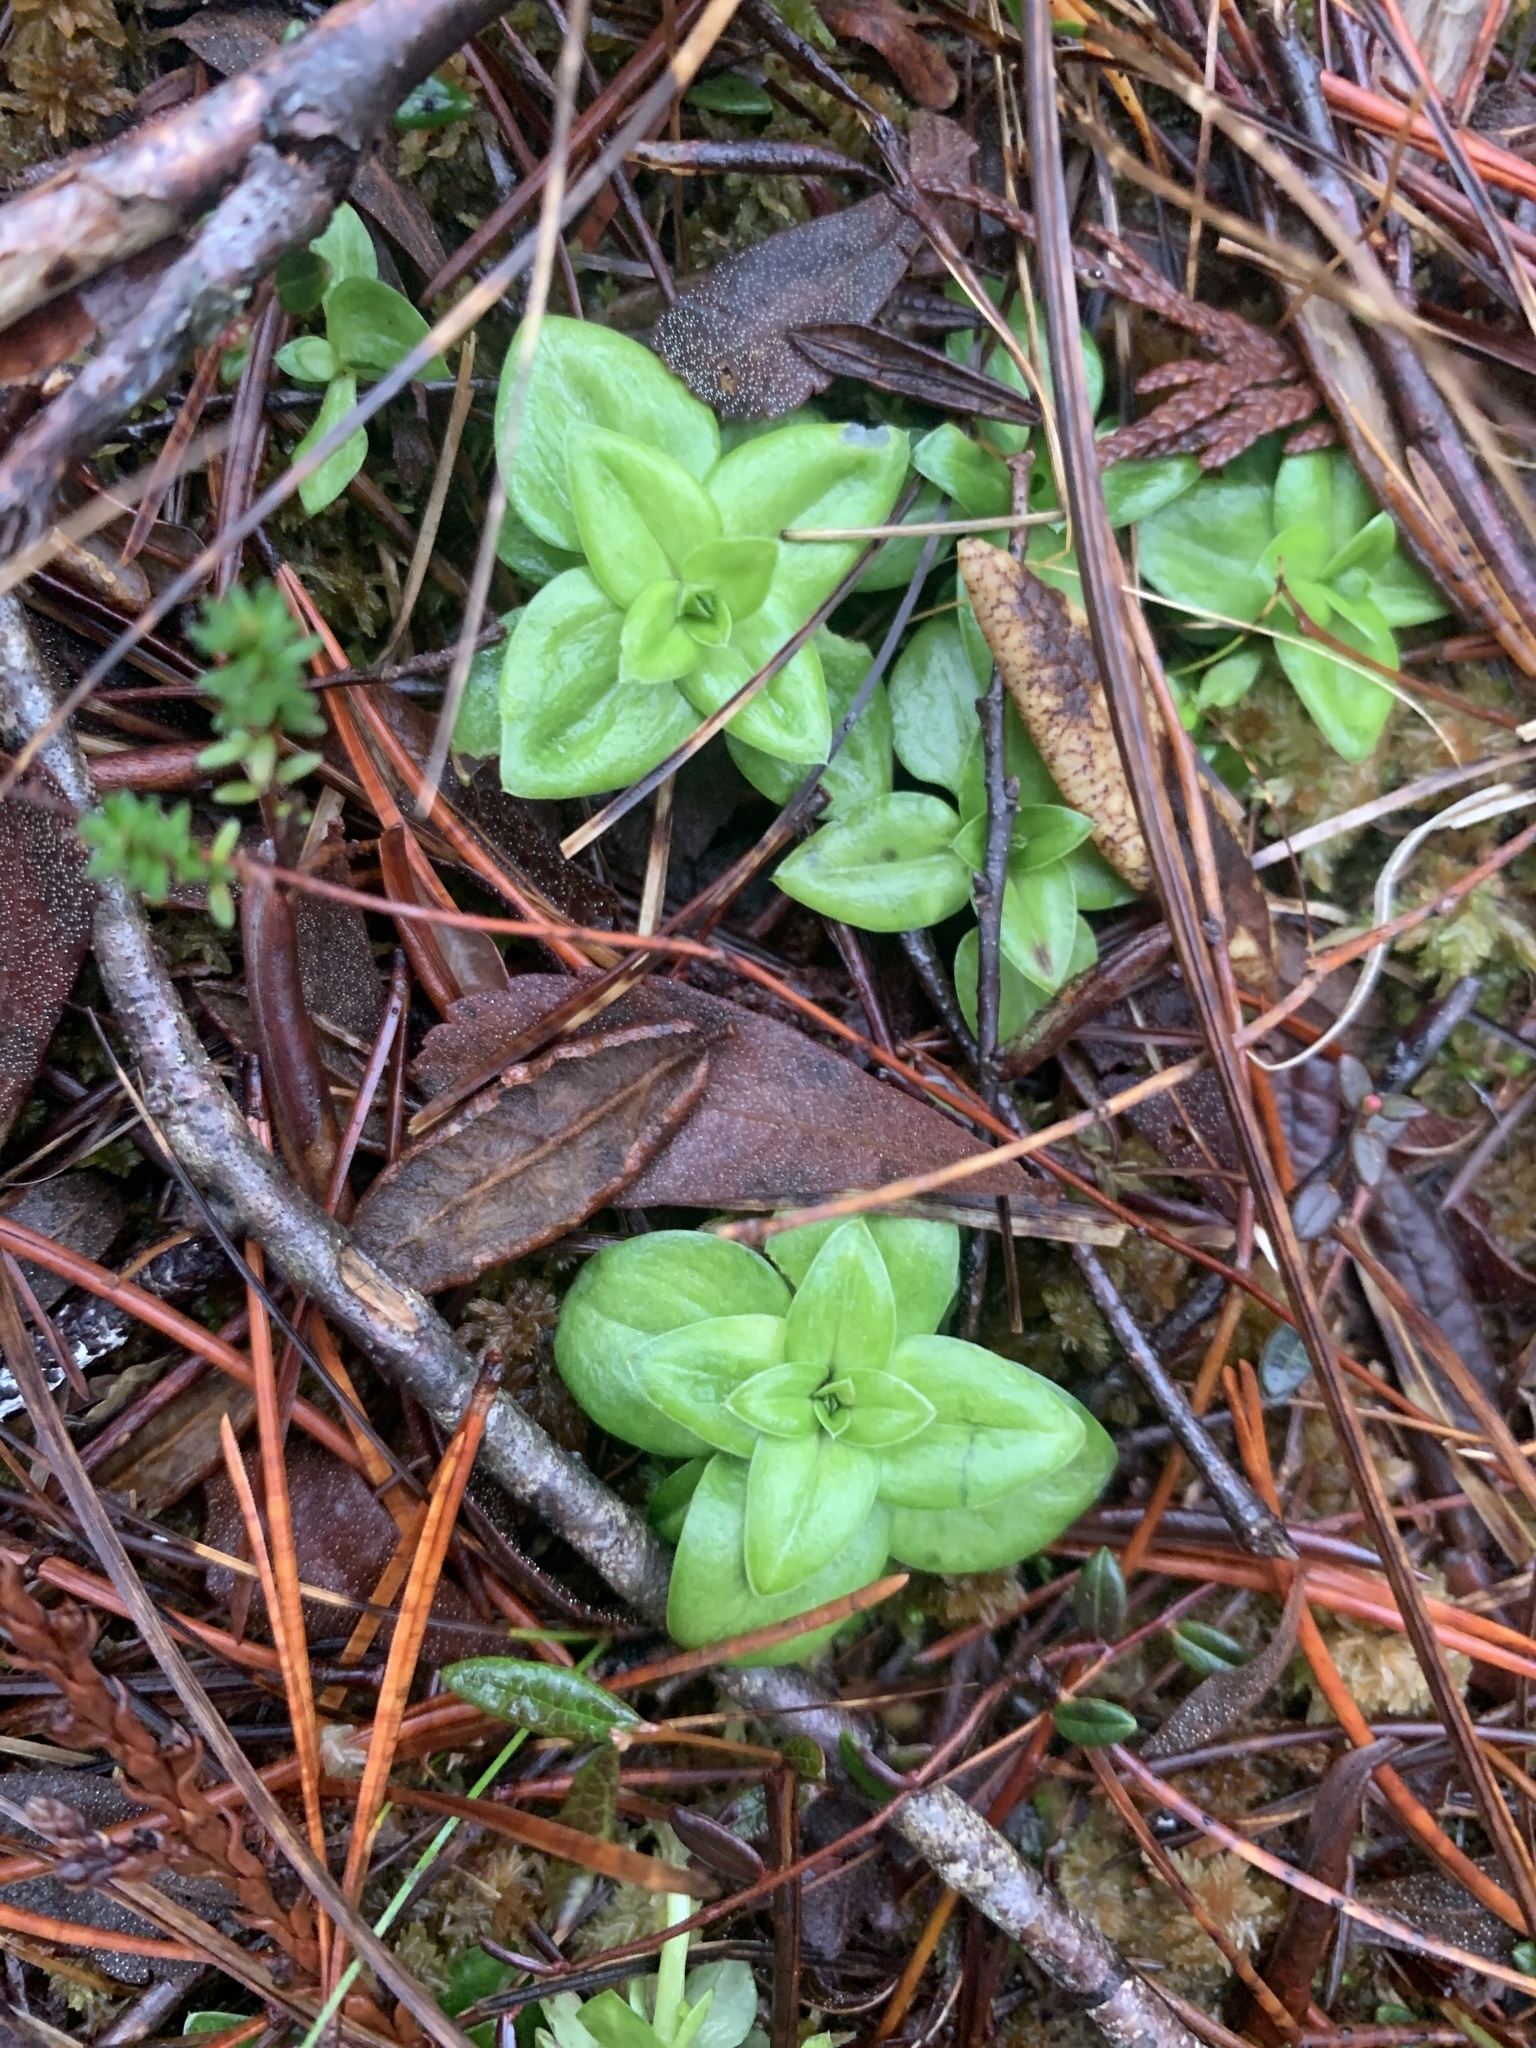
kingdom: Plantae
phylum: Tracheophyta
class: Magnoliopsida
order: Gentianales
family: Gentianaceae
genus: Gentiana
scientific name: Gentiana douglasiana
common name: Swamp gentian
